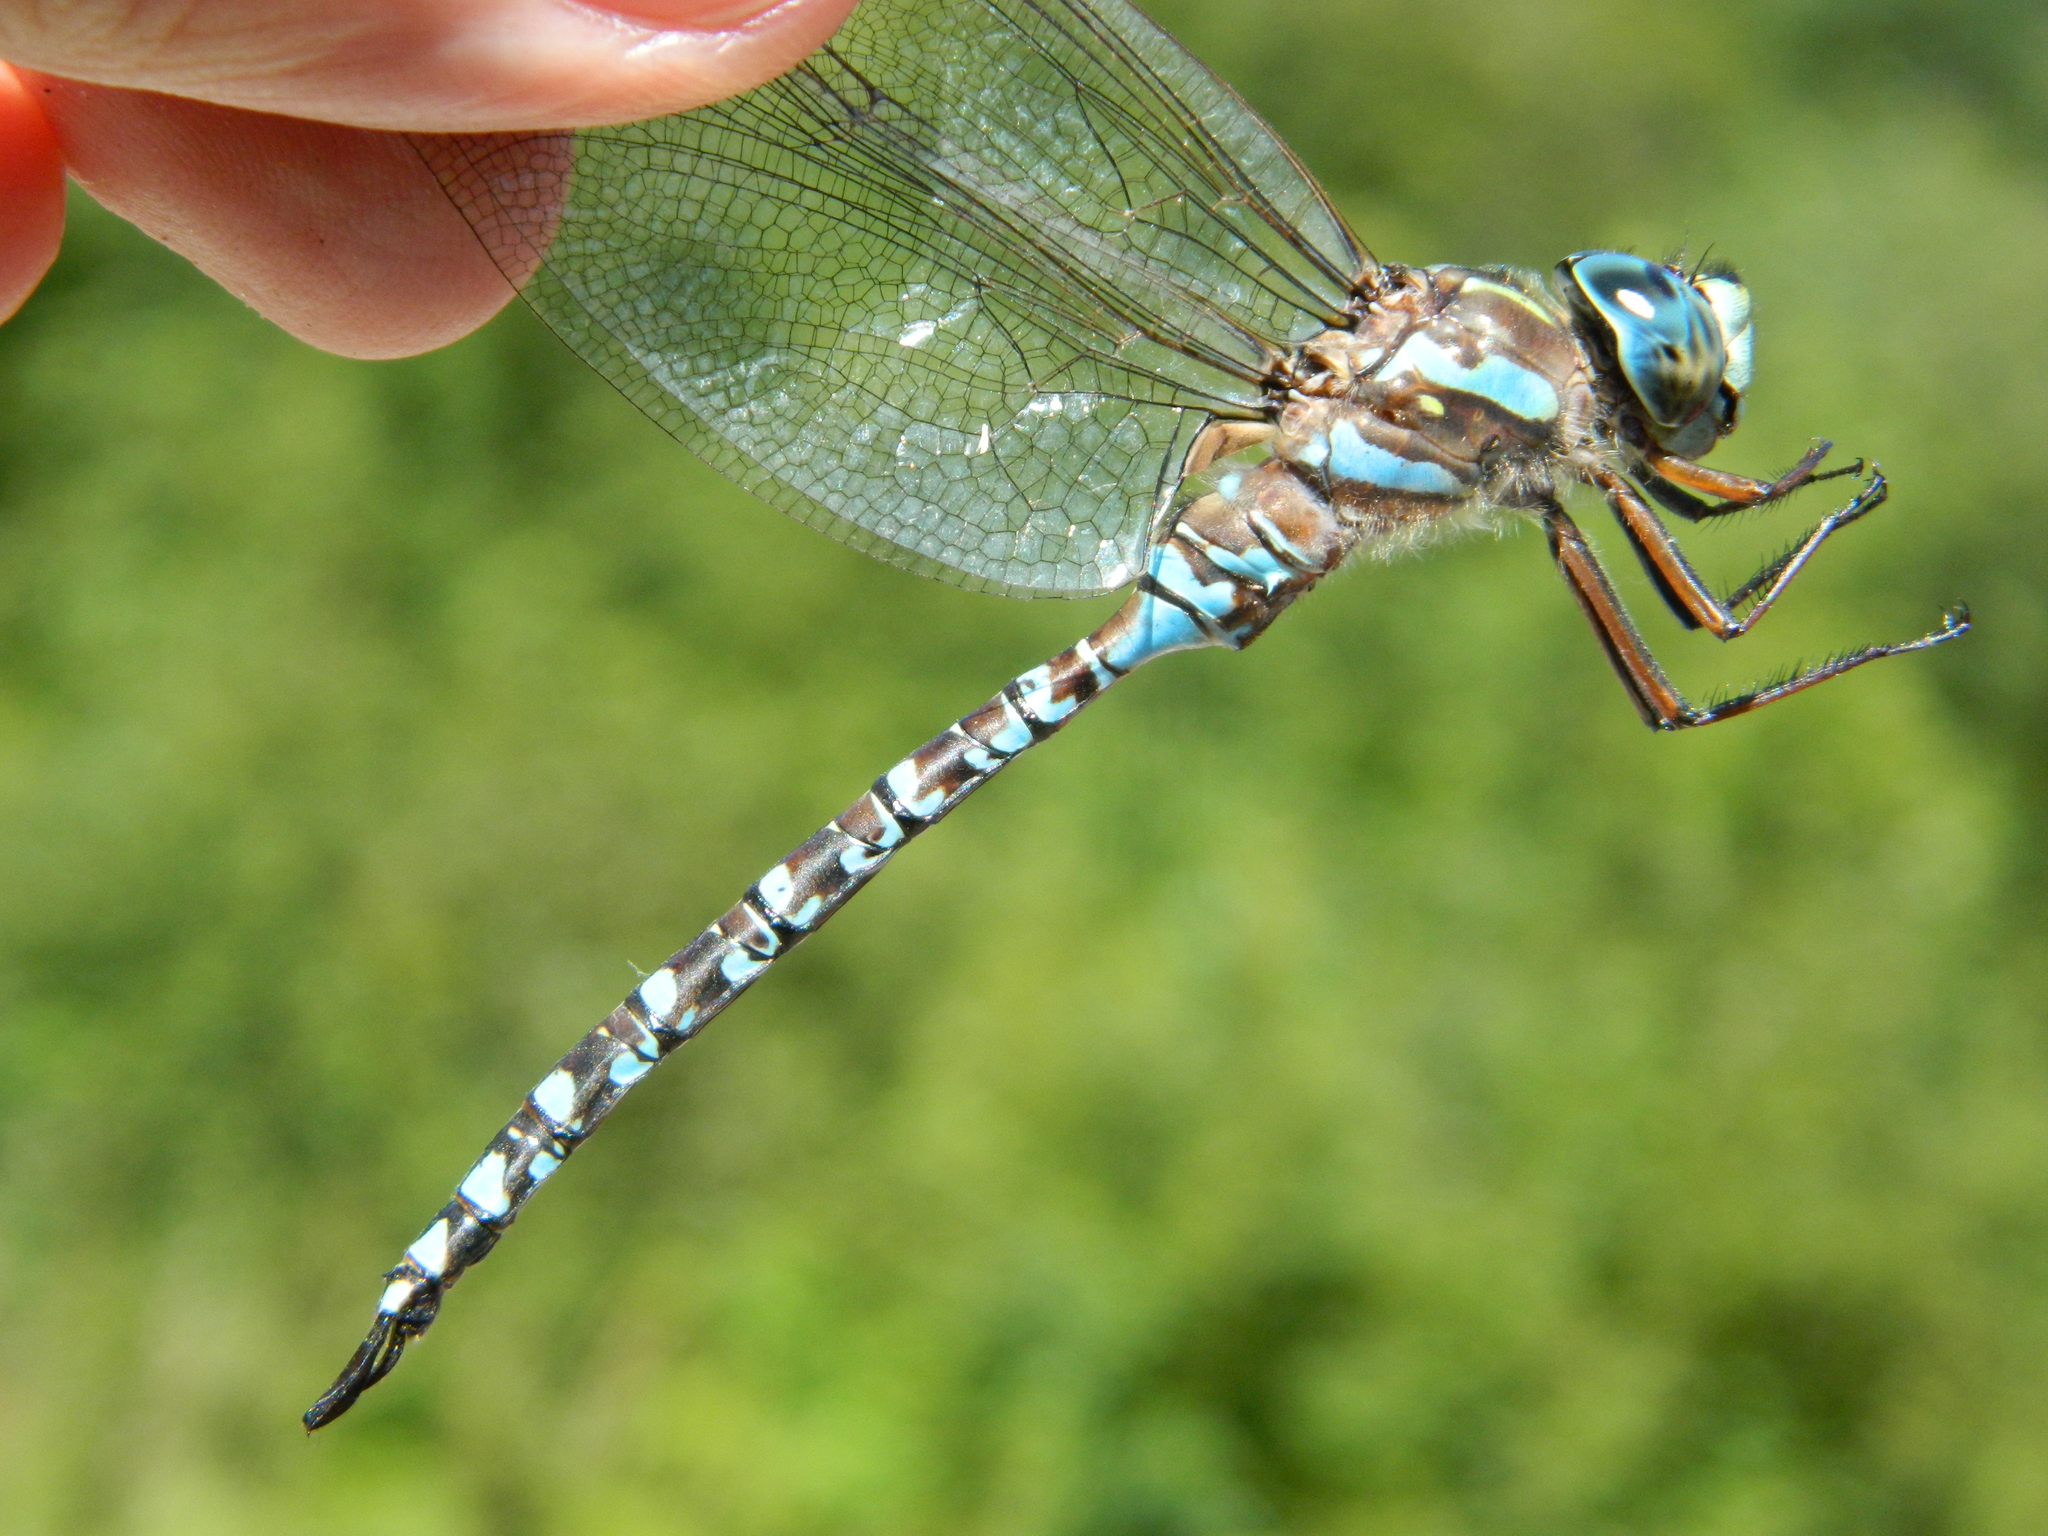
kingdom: Animalia
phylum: Arthropoda
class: Insecta
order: Odonata
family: Aeshnidae
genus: Aeshna
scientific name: Aeshna canadensis
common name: Canada darner
